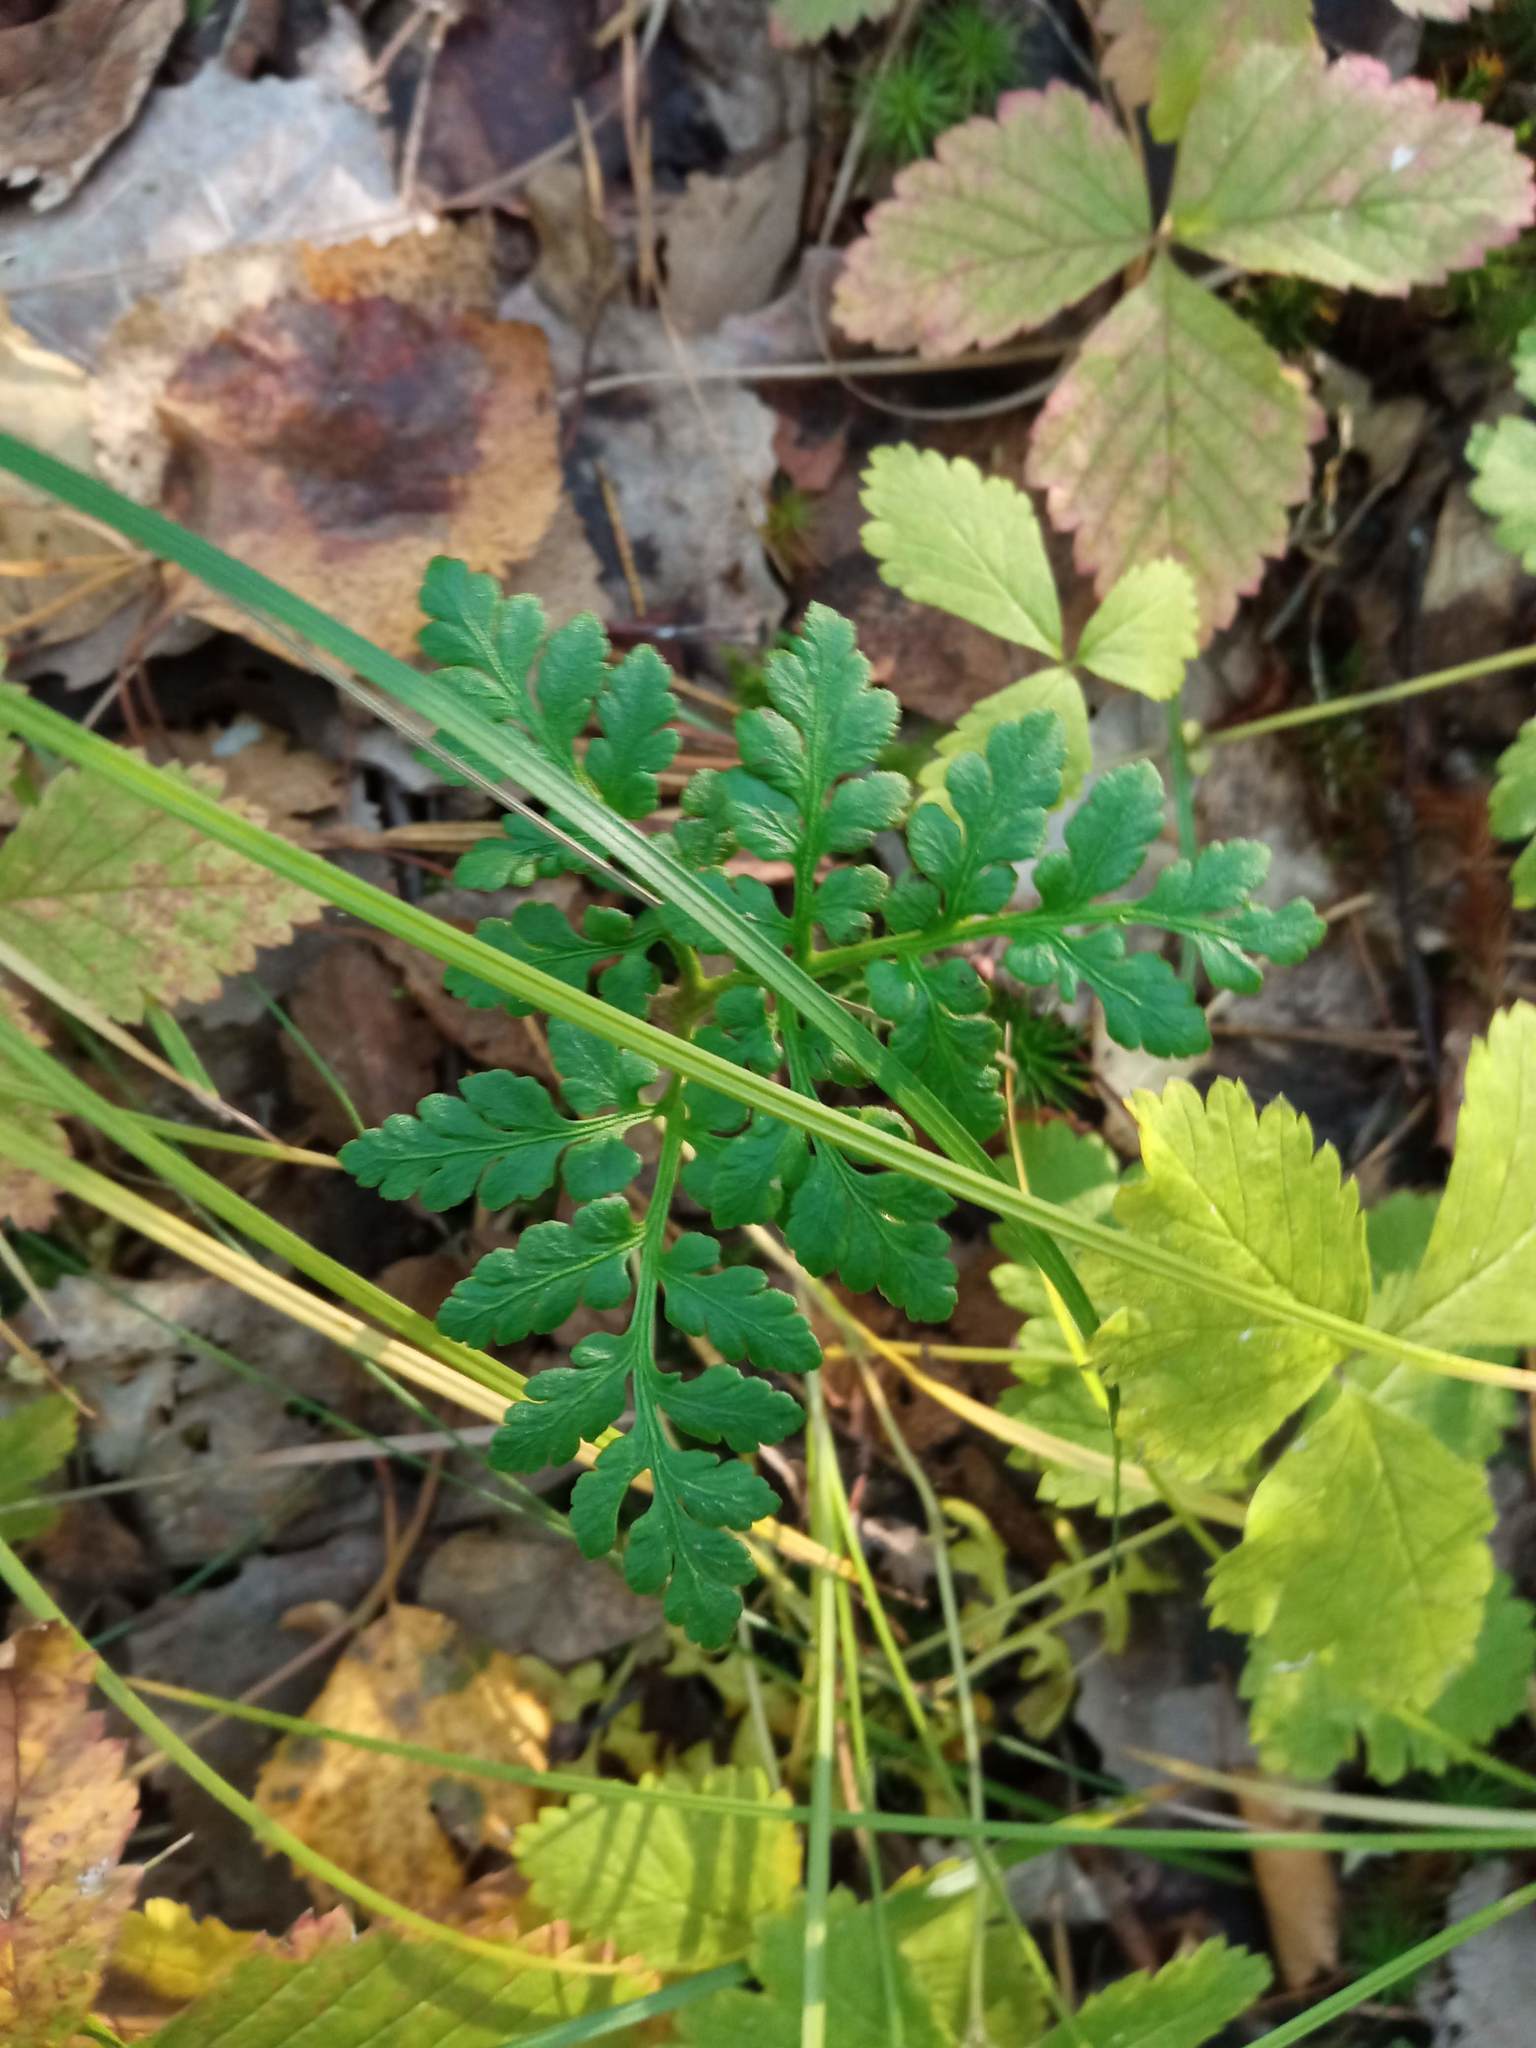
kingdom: Plantae
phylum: Tracheophyta
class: Polypodiopsida
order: Ophioglossales
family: Ophioglossaceae
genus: Sceptridium
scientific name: Sceptridium multifidum
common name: Leathery grape fern
